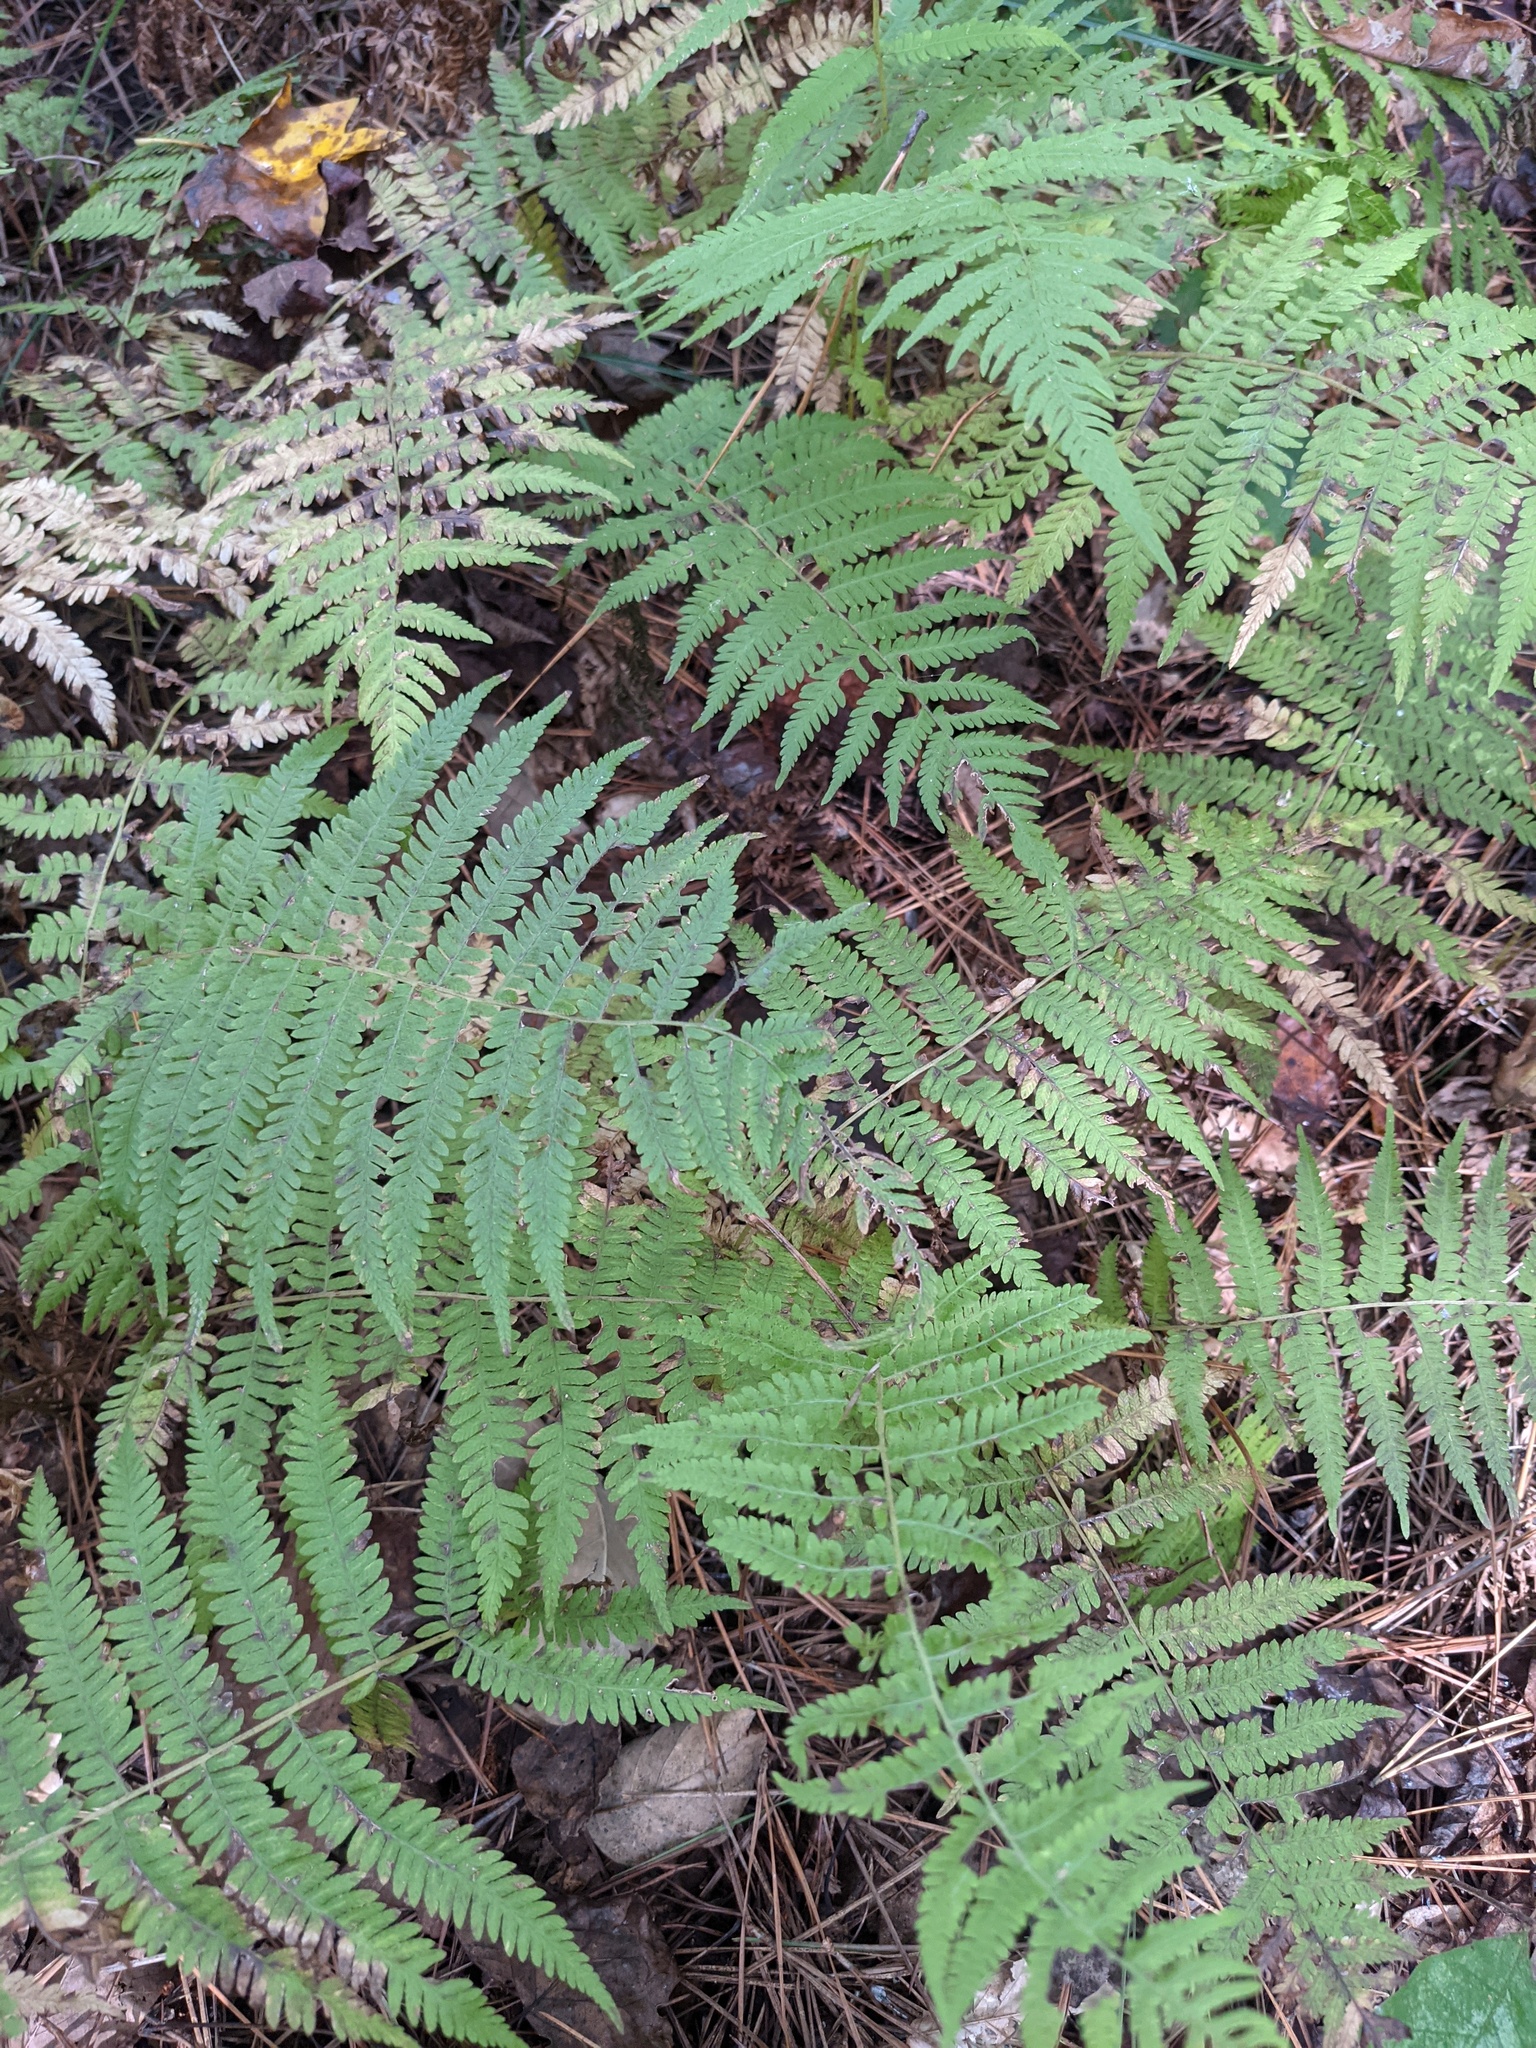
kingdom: Plantae
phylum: Tracheophyta
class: Polypodiopsida
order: Polypodiales
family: Thelypteridaceae
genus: Amauropelta
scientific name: Amauropelta noveboracensis
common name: New york fern
